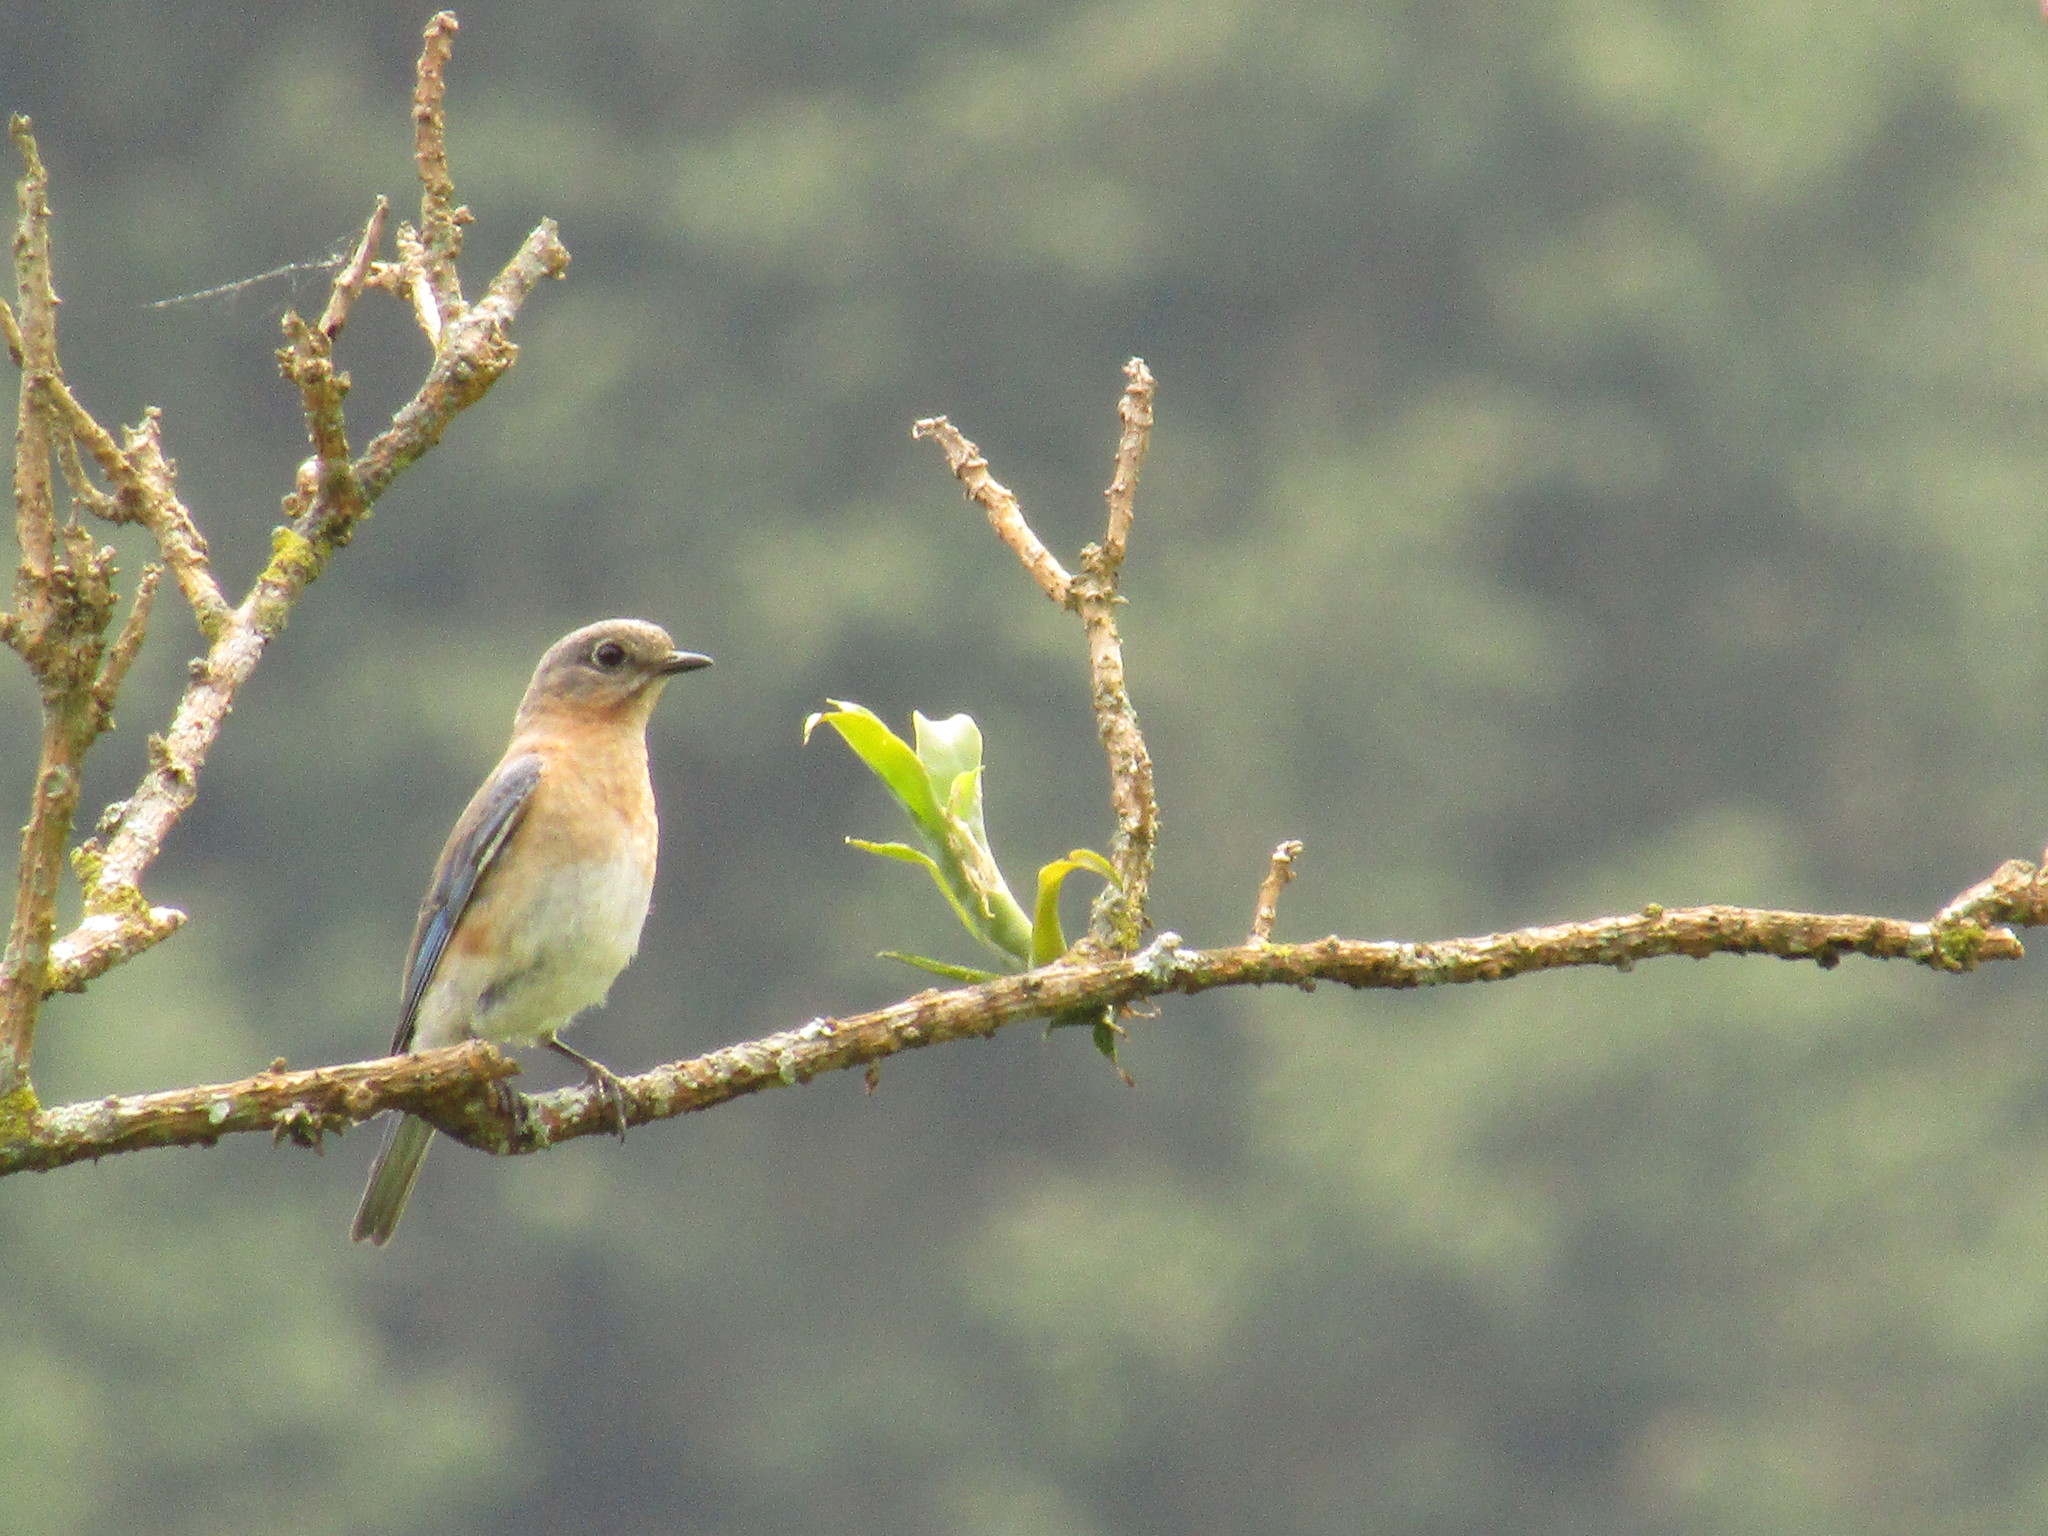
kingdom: Animalia
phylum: Chordata
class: Aves
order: Passeriformes
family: Turdidae
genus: Sialia
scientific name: Sialia sialis
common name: Eastern bluebird
